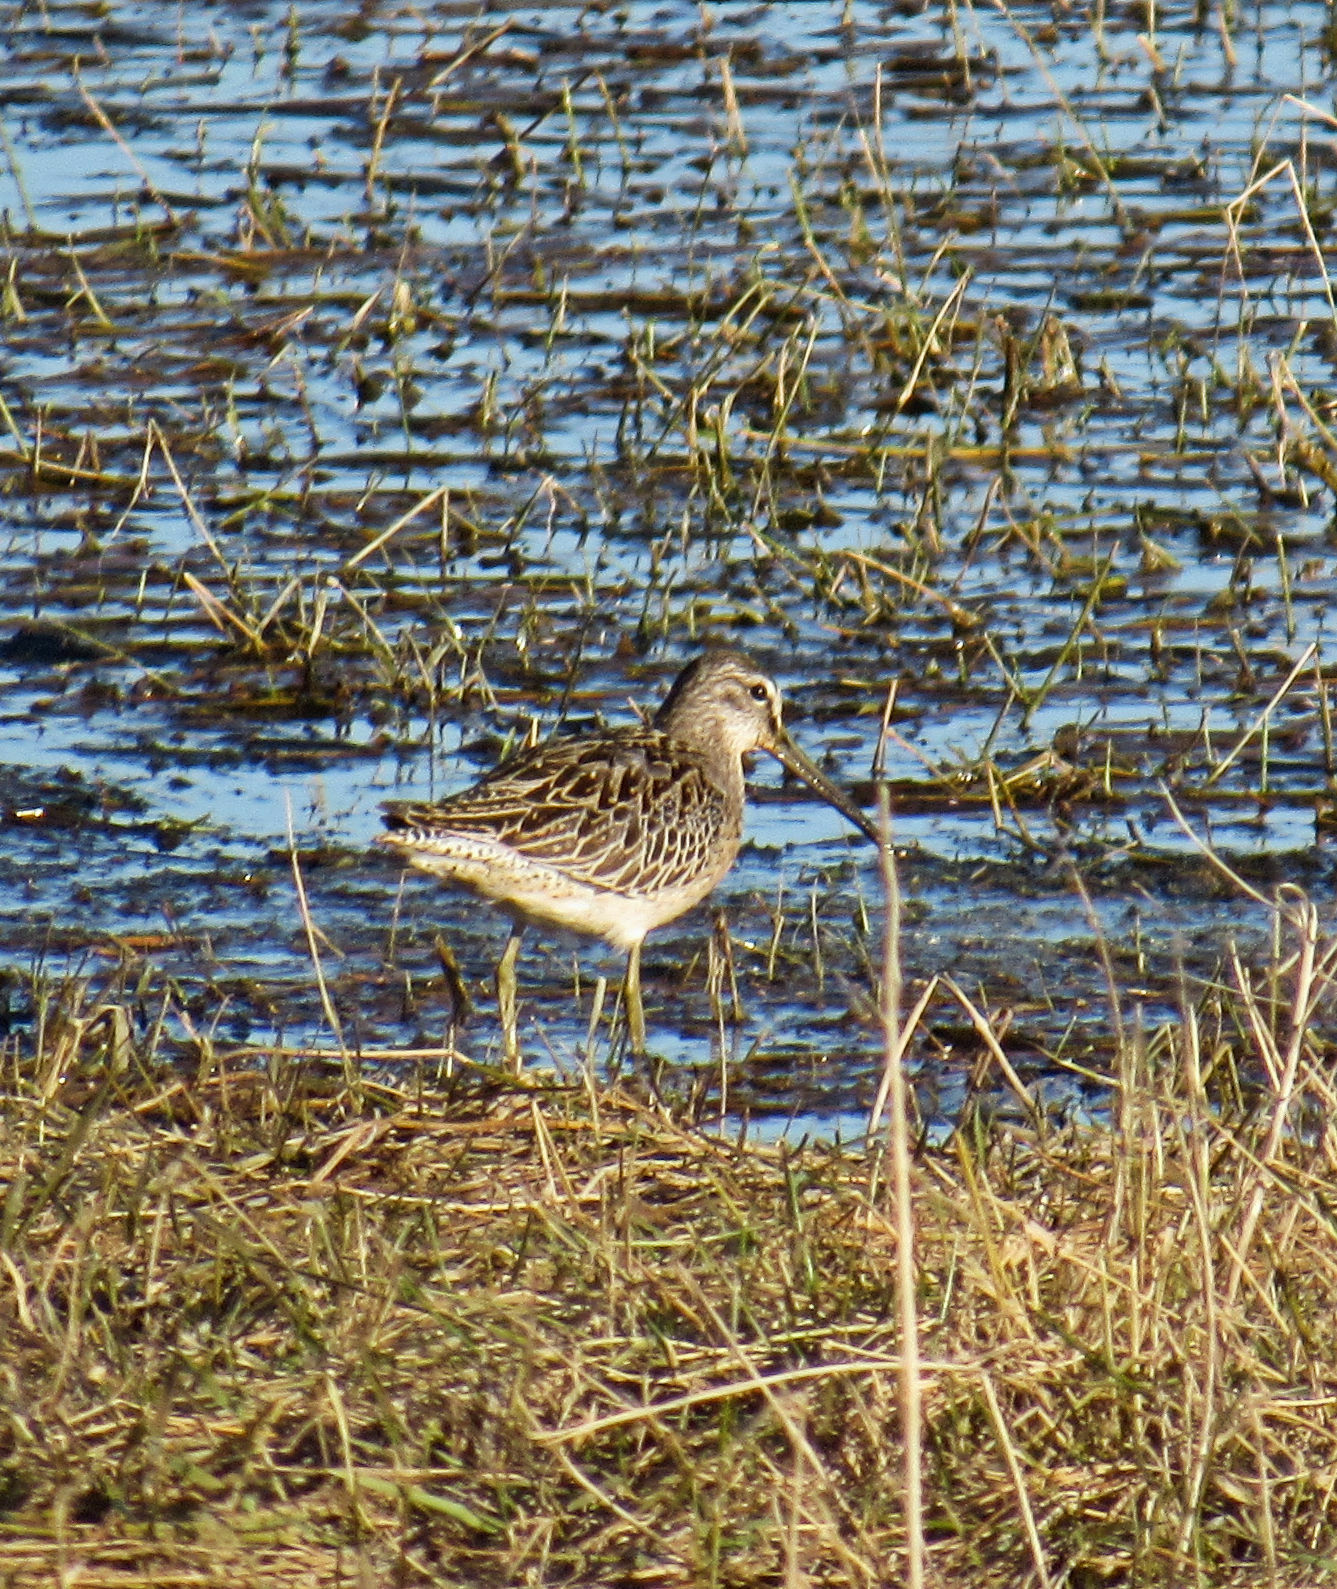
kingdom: Animalia
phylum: Chordata
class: Aves
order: Charadriiformes
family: Scolopacidae
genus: Limnodromus
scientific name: Limnodromus griseus
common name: Short-billed dowitcher
